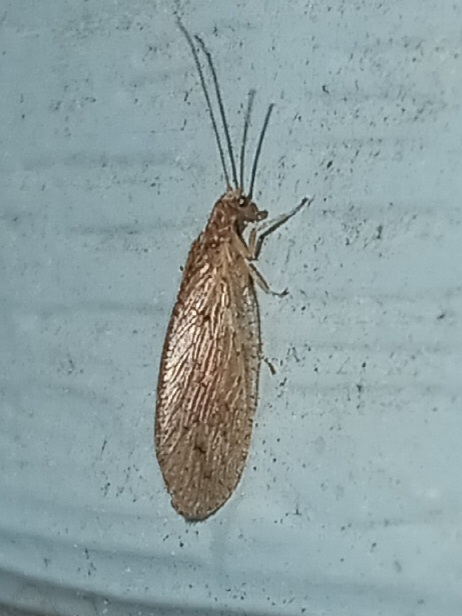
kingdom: Animalia
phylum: Arthropoda
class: Insecta
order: Neuroptera
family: Hemerobiidae
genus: Micromus
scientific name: Micromus subanticus
